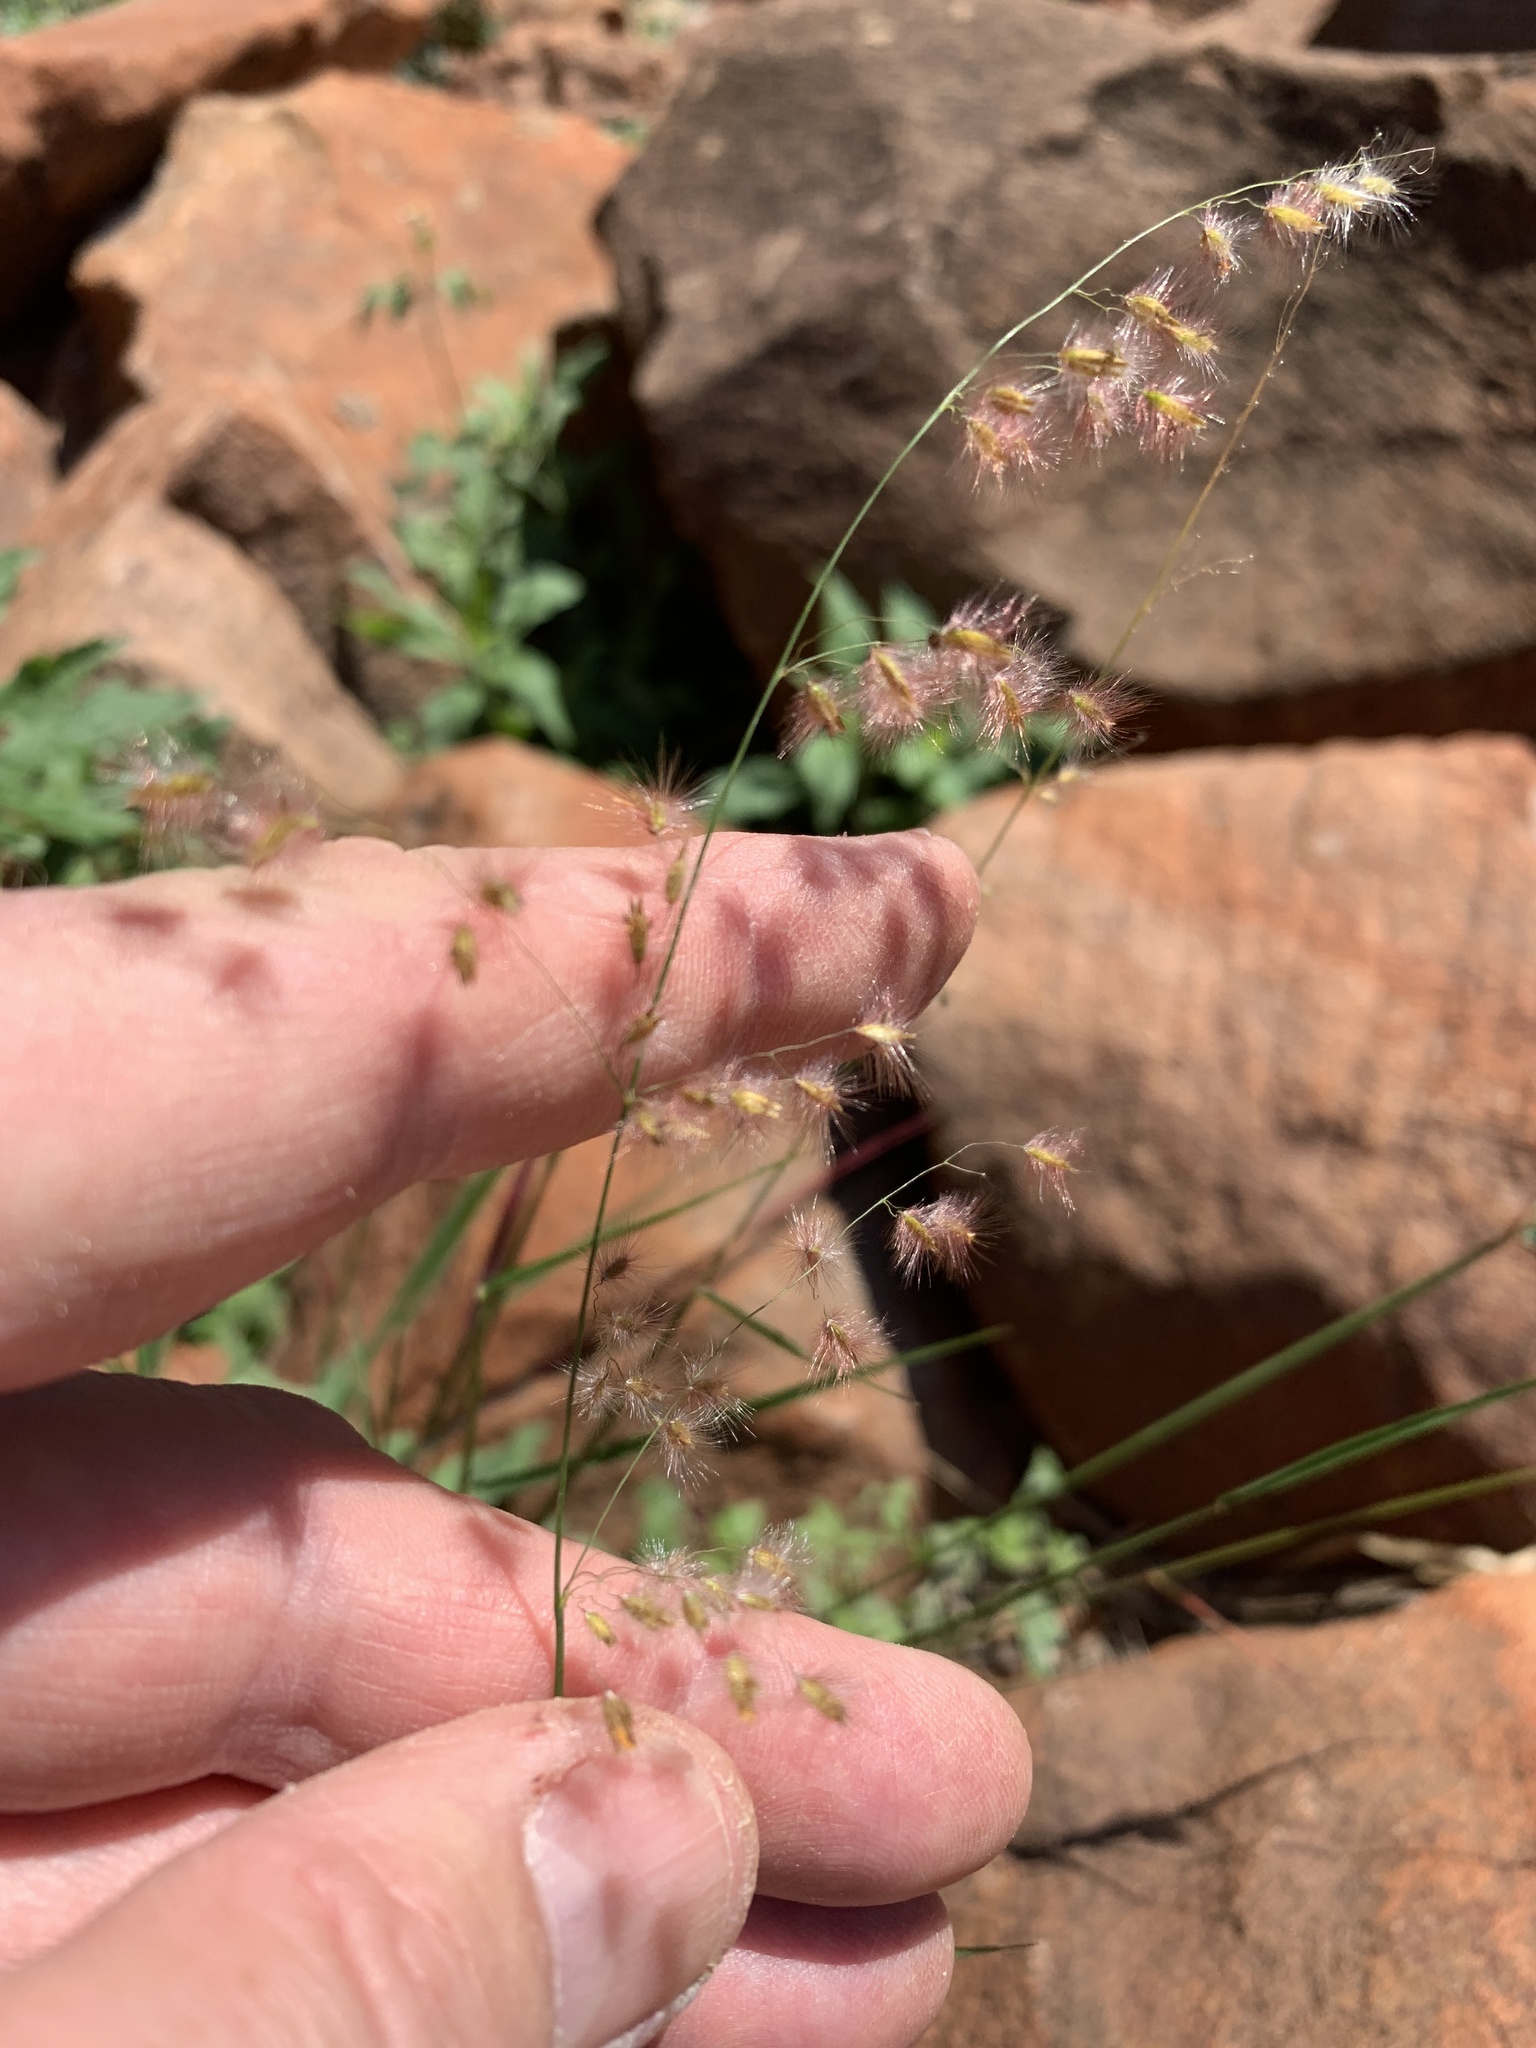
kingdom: Plantae
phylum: Tracheophyta
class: Liliopsida
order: Poales
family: Poaceae
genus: Melinis
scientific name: Melinis repens
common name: Rose natal grass
